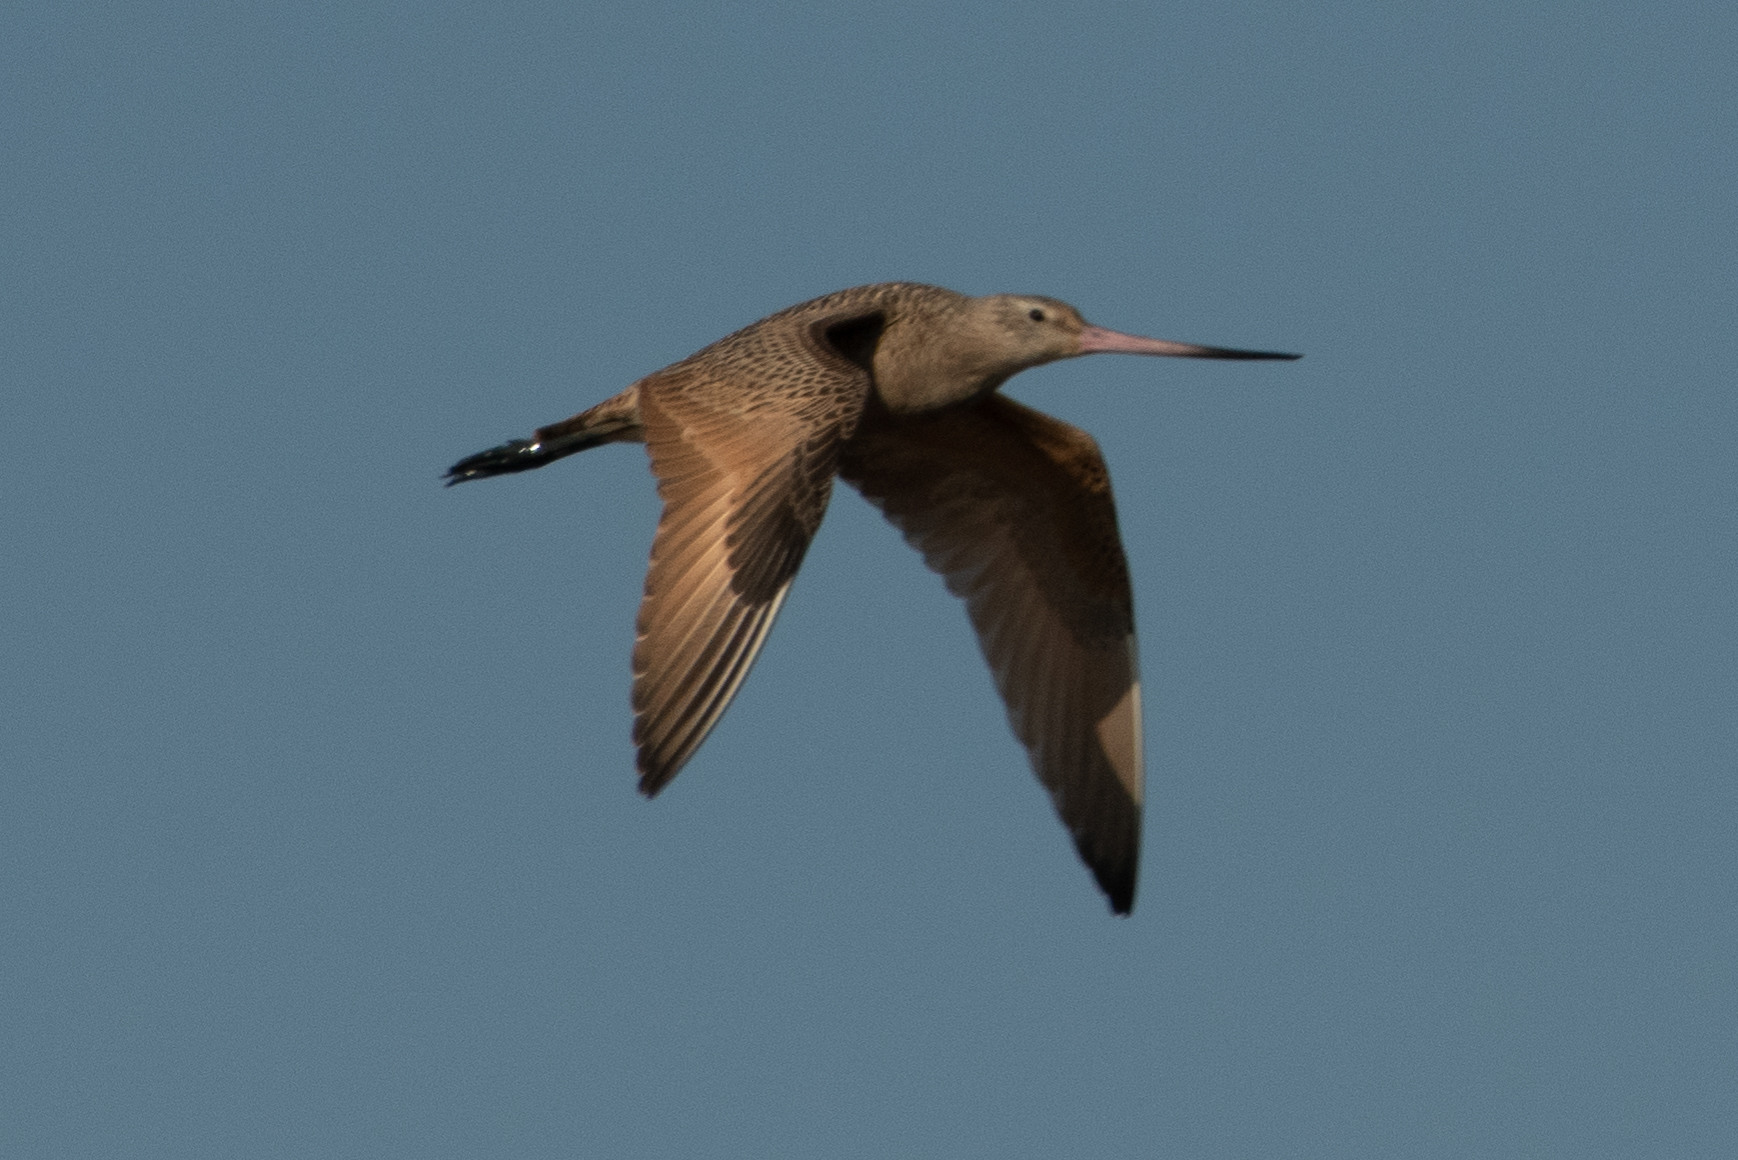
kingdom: Animalia
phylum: Chordata
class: Aves
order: Charadriiformes
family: Scolopacidae
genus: Limosa
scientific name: Limosa fedoa
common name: Marbled godwit
